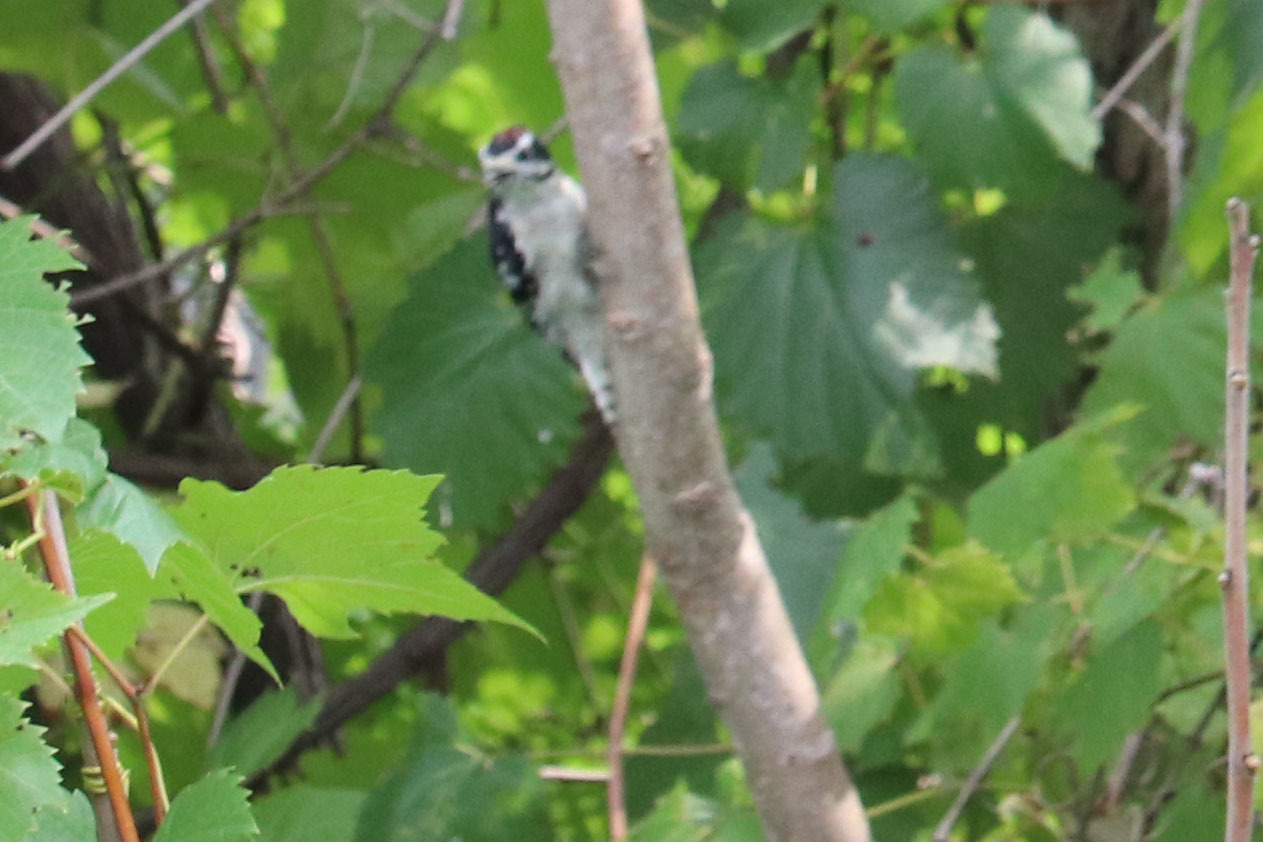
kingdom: Animalia
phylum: Chordata
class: Aves
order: Piciformes
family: Picidae
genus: Dryobates
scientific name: Dryobates pubescens
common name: Downy woodpecker
